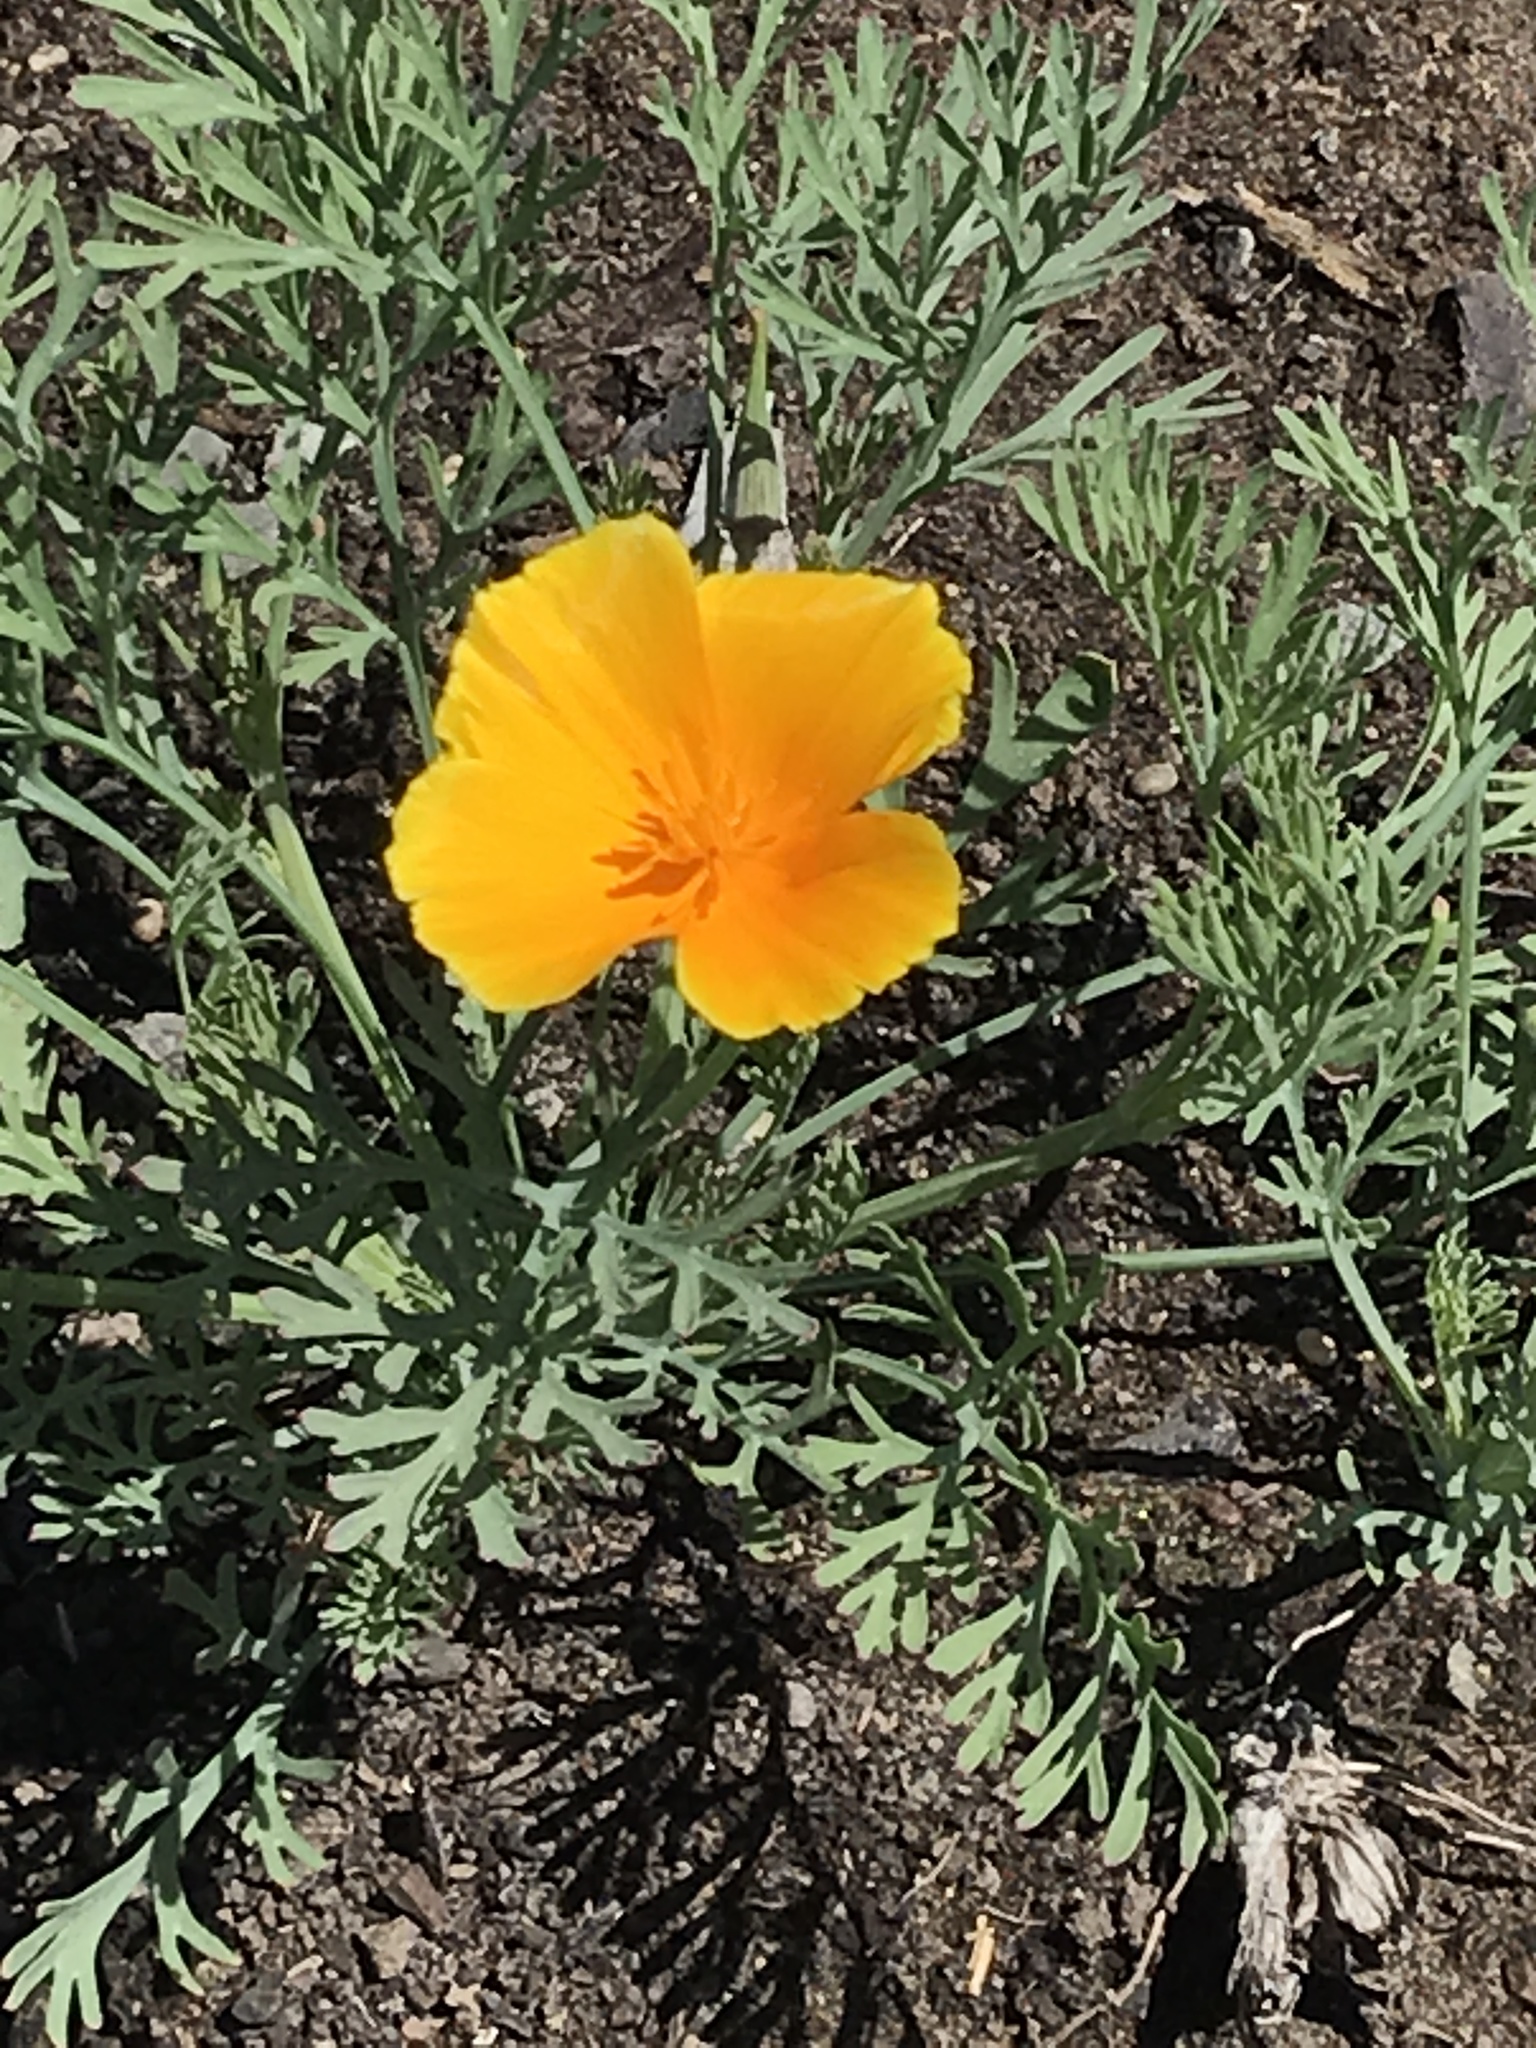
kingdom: Plantae
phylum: Tracheophyta
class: Magnoliopsida
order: Ranunculales
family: Papaveraceae
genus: Eschscholzia
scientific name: Eschscholzia californica
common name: California poppy
